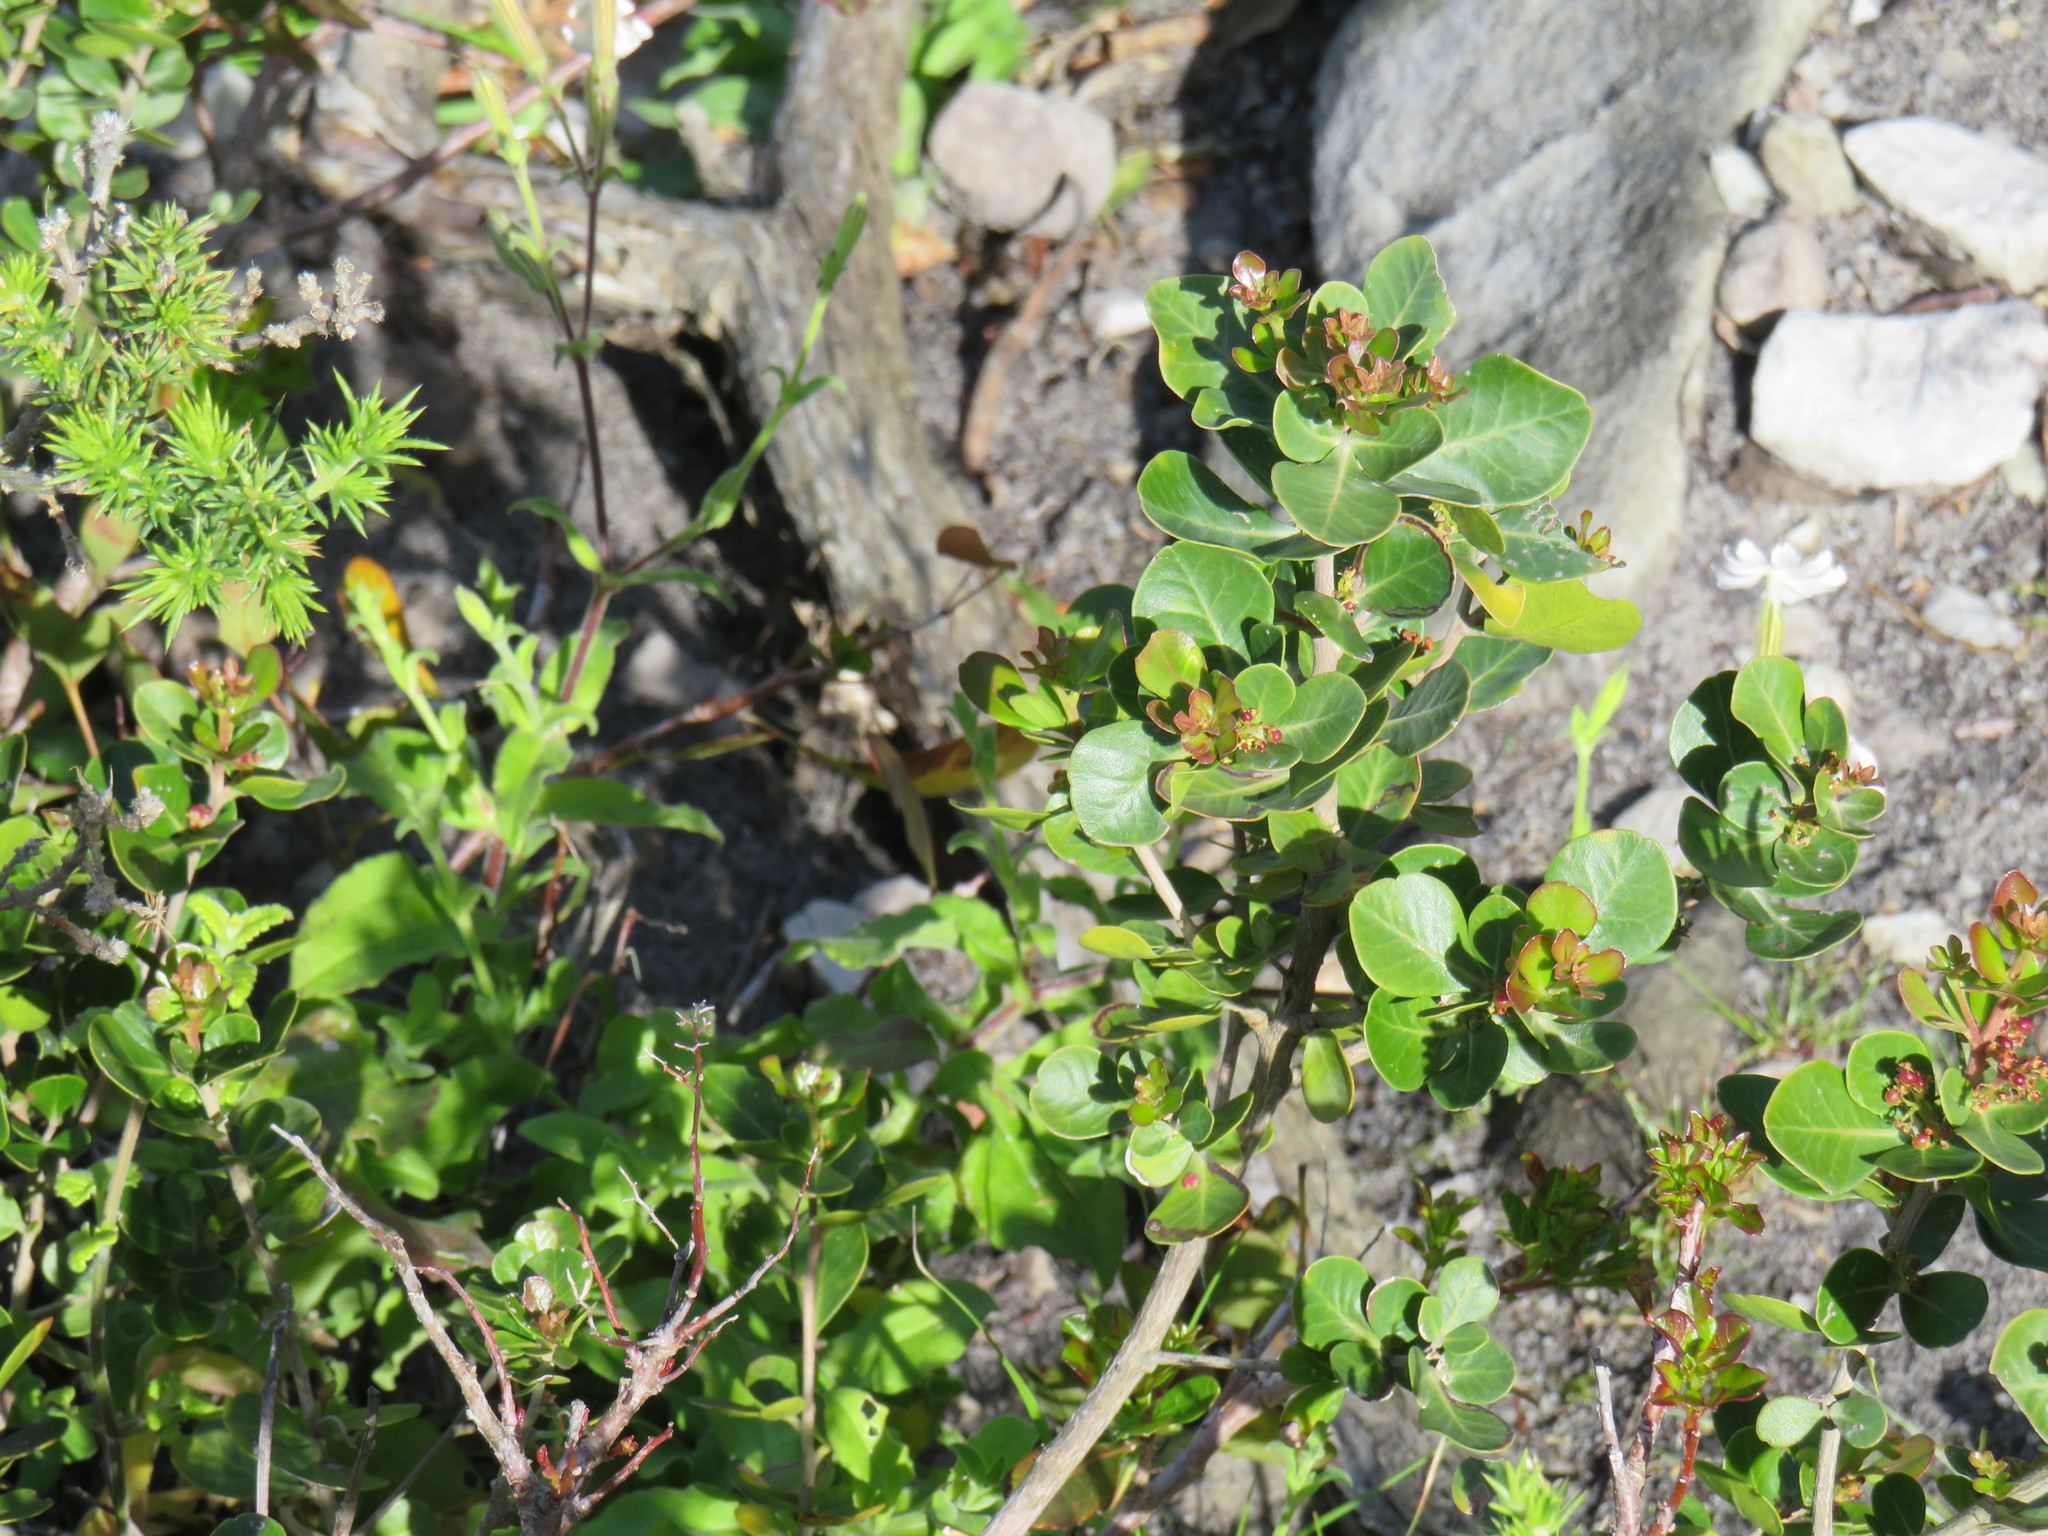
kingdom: Plantae
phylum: Tracheophyta
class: Magnoliopsida
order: Sapindales
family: Anacardiaceae
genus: Searsia
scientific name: Searsia lucida
